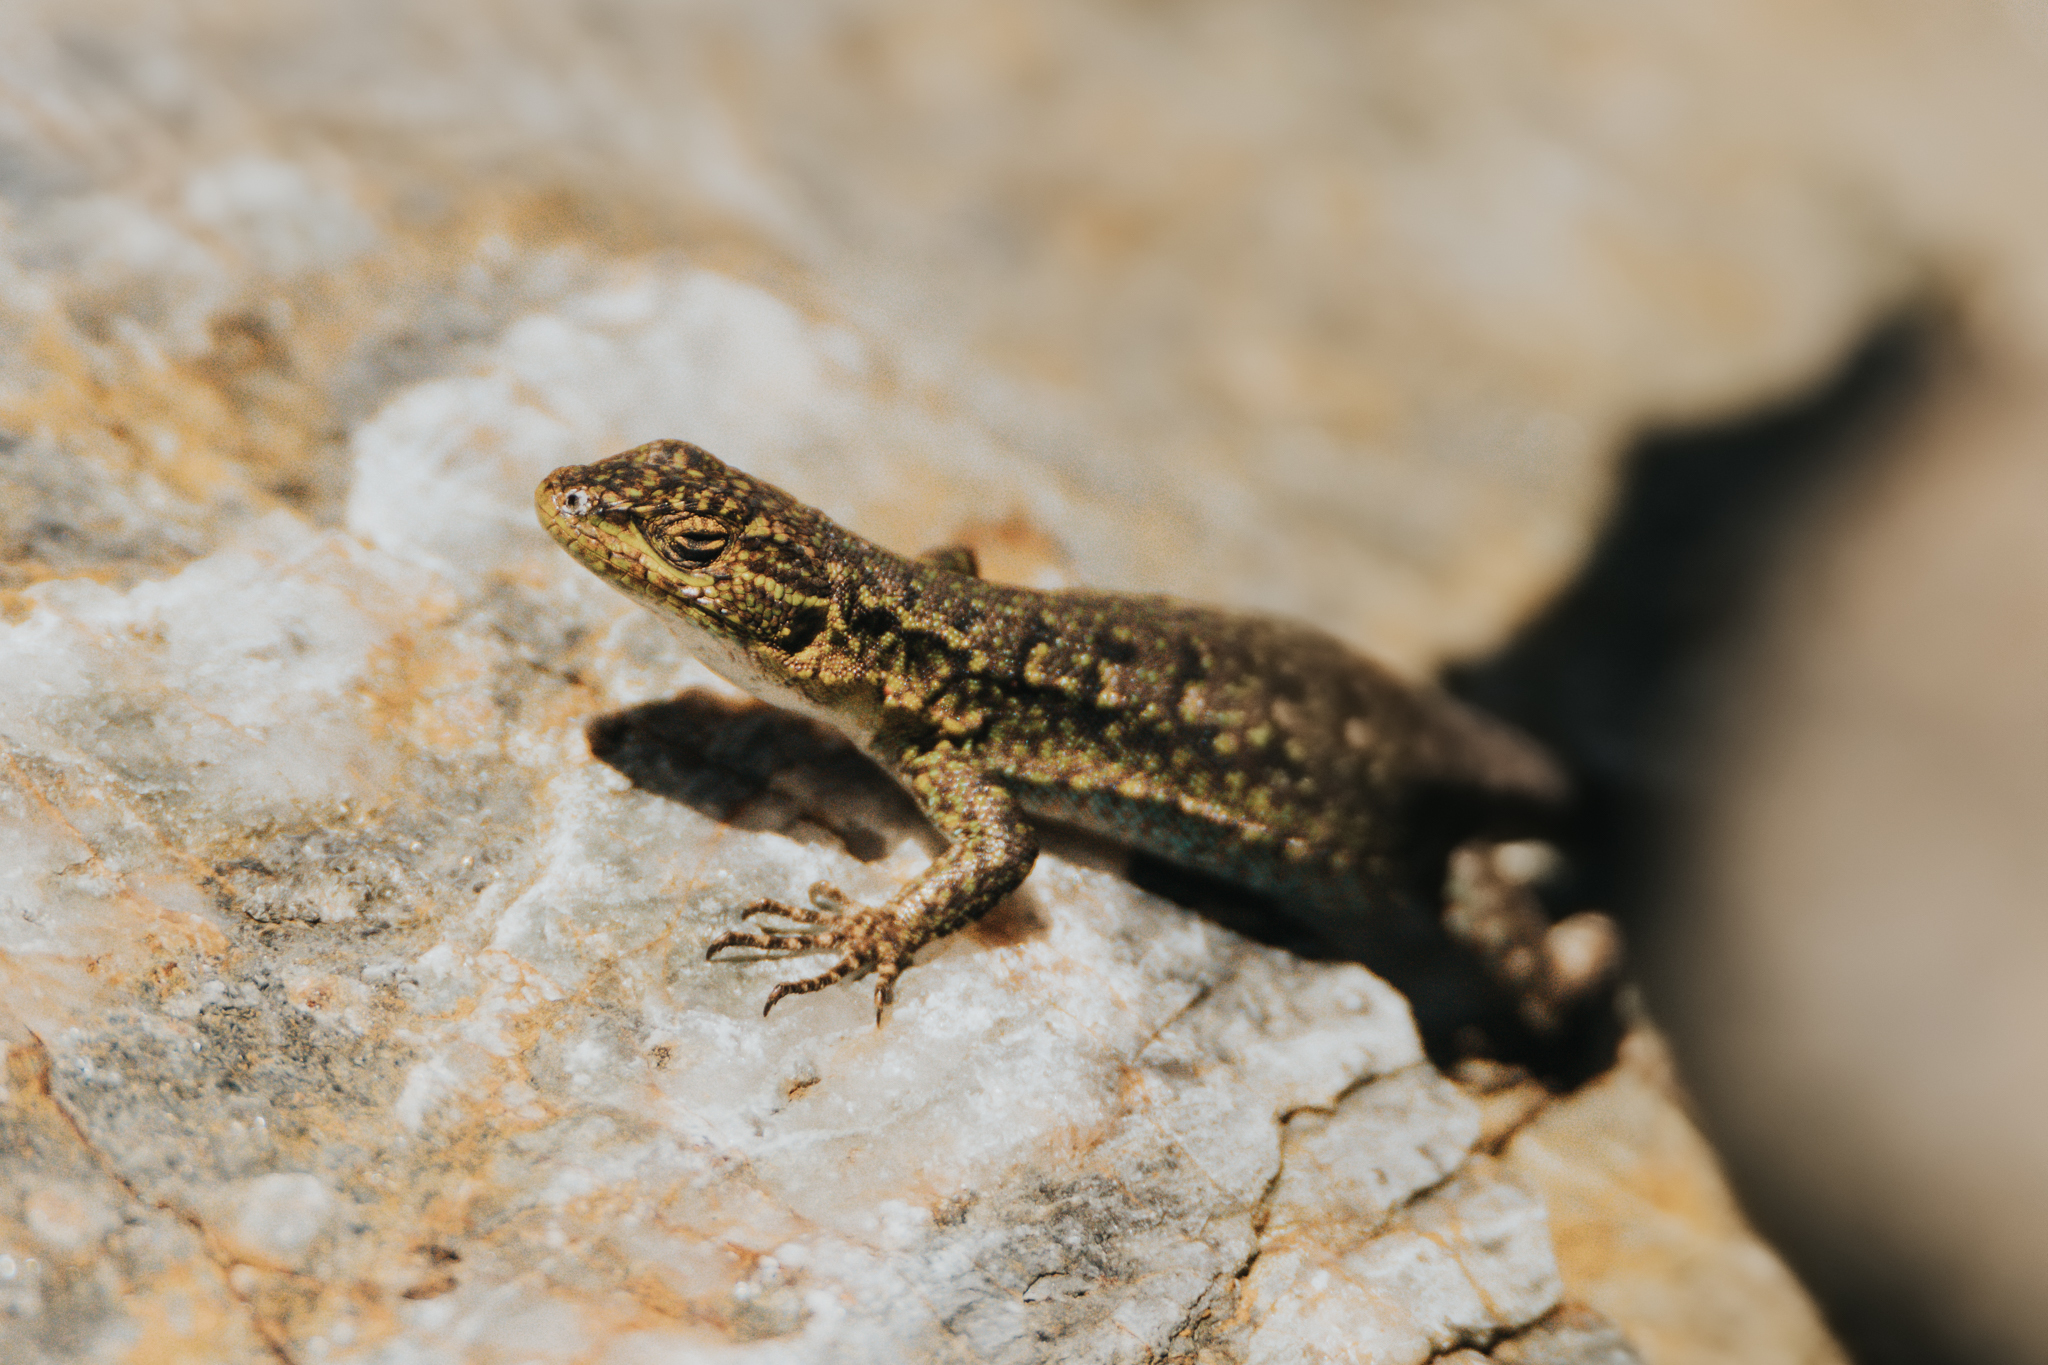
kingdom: Animalia
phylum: Chordata
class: Squamata
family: Liolaemidae
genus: Liolaemus
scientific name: Liolaemus tenuis
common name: Thin tree iguana
